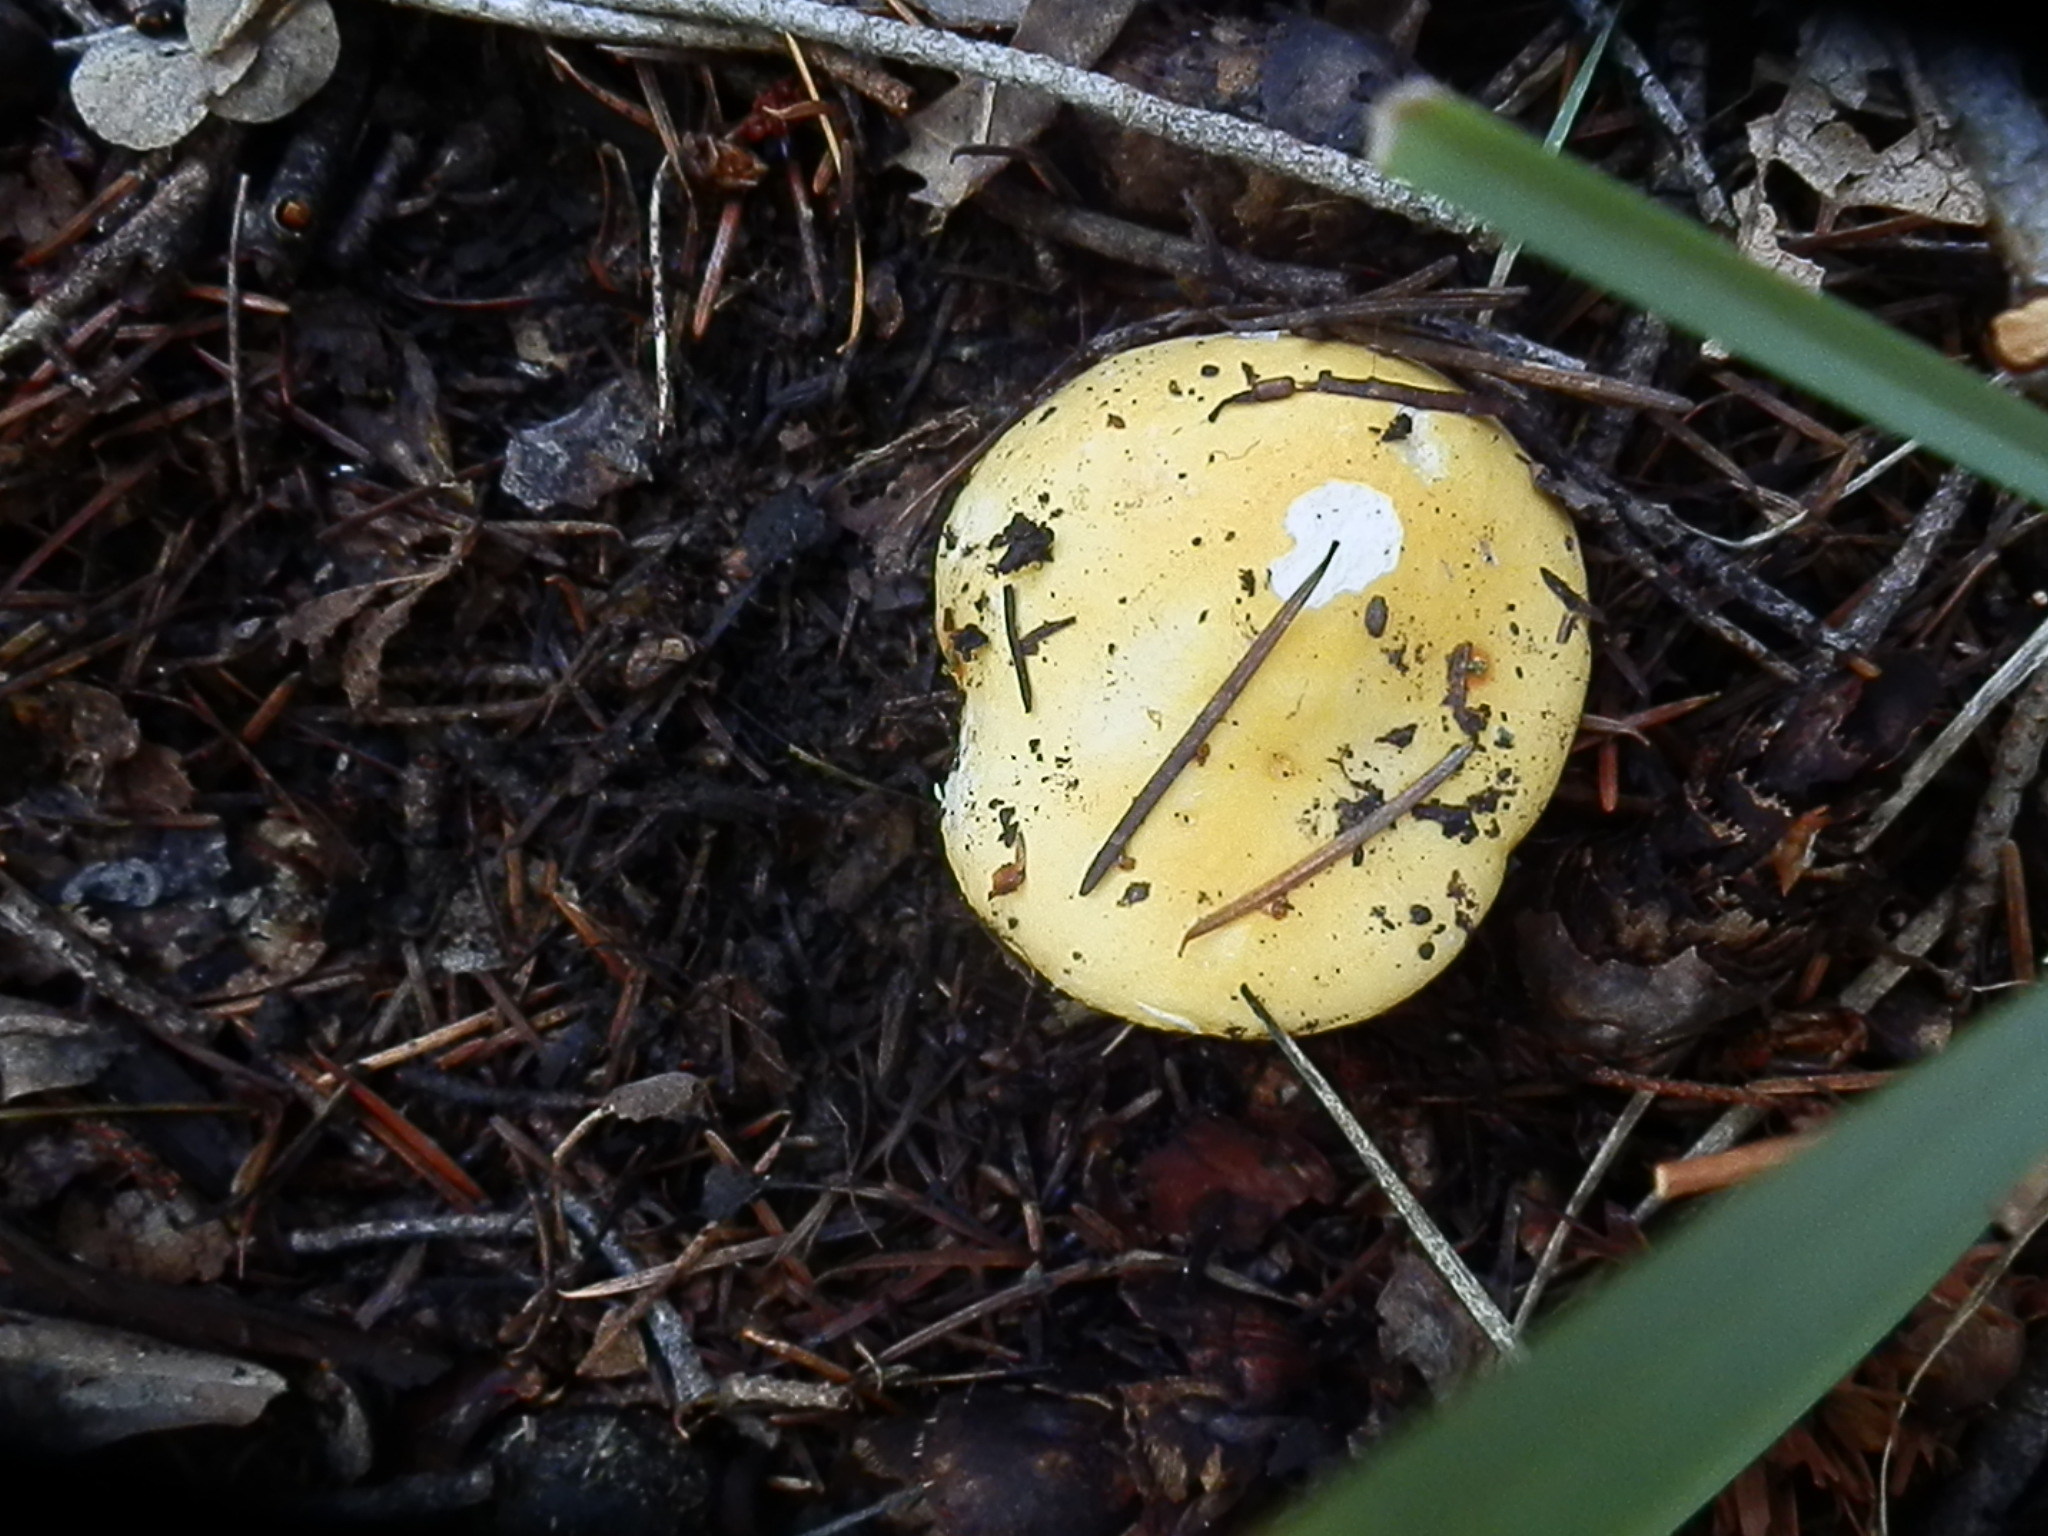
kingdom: Fungi
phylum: Basidiomycota
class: Agaricomycetes
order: Russulales
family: Russulaceae
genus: Russula
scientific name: Russula risigallina
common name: Golden brittlegill
